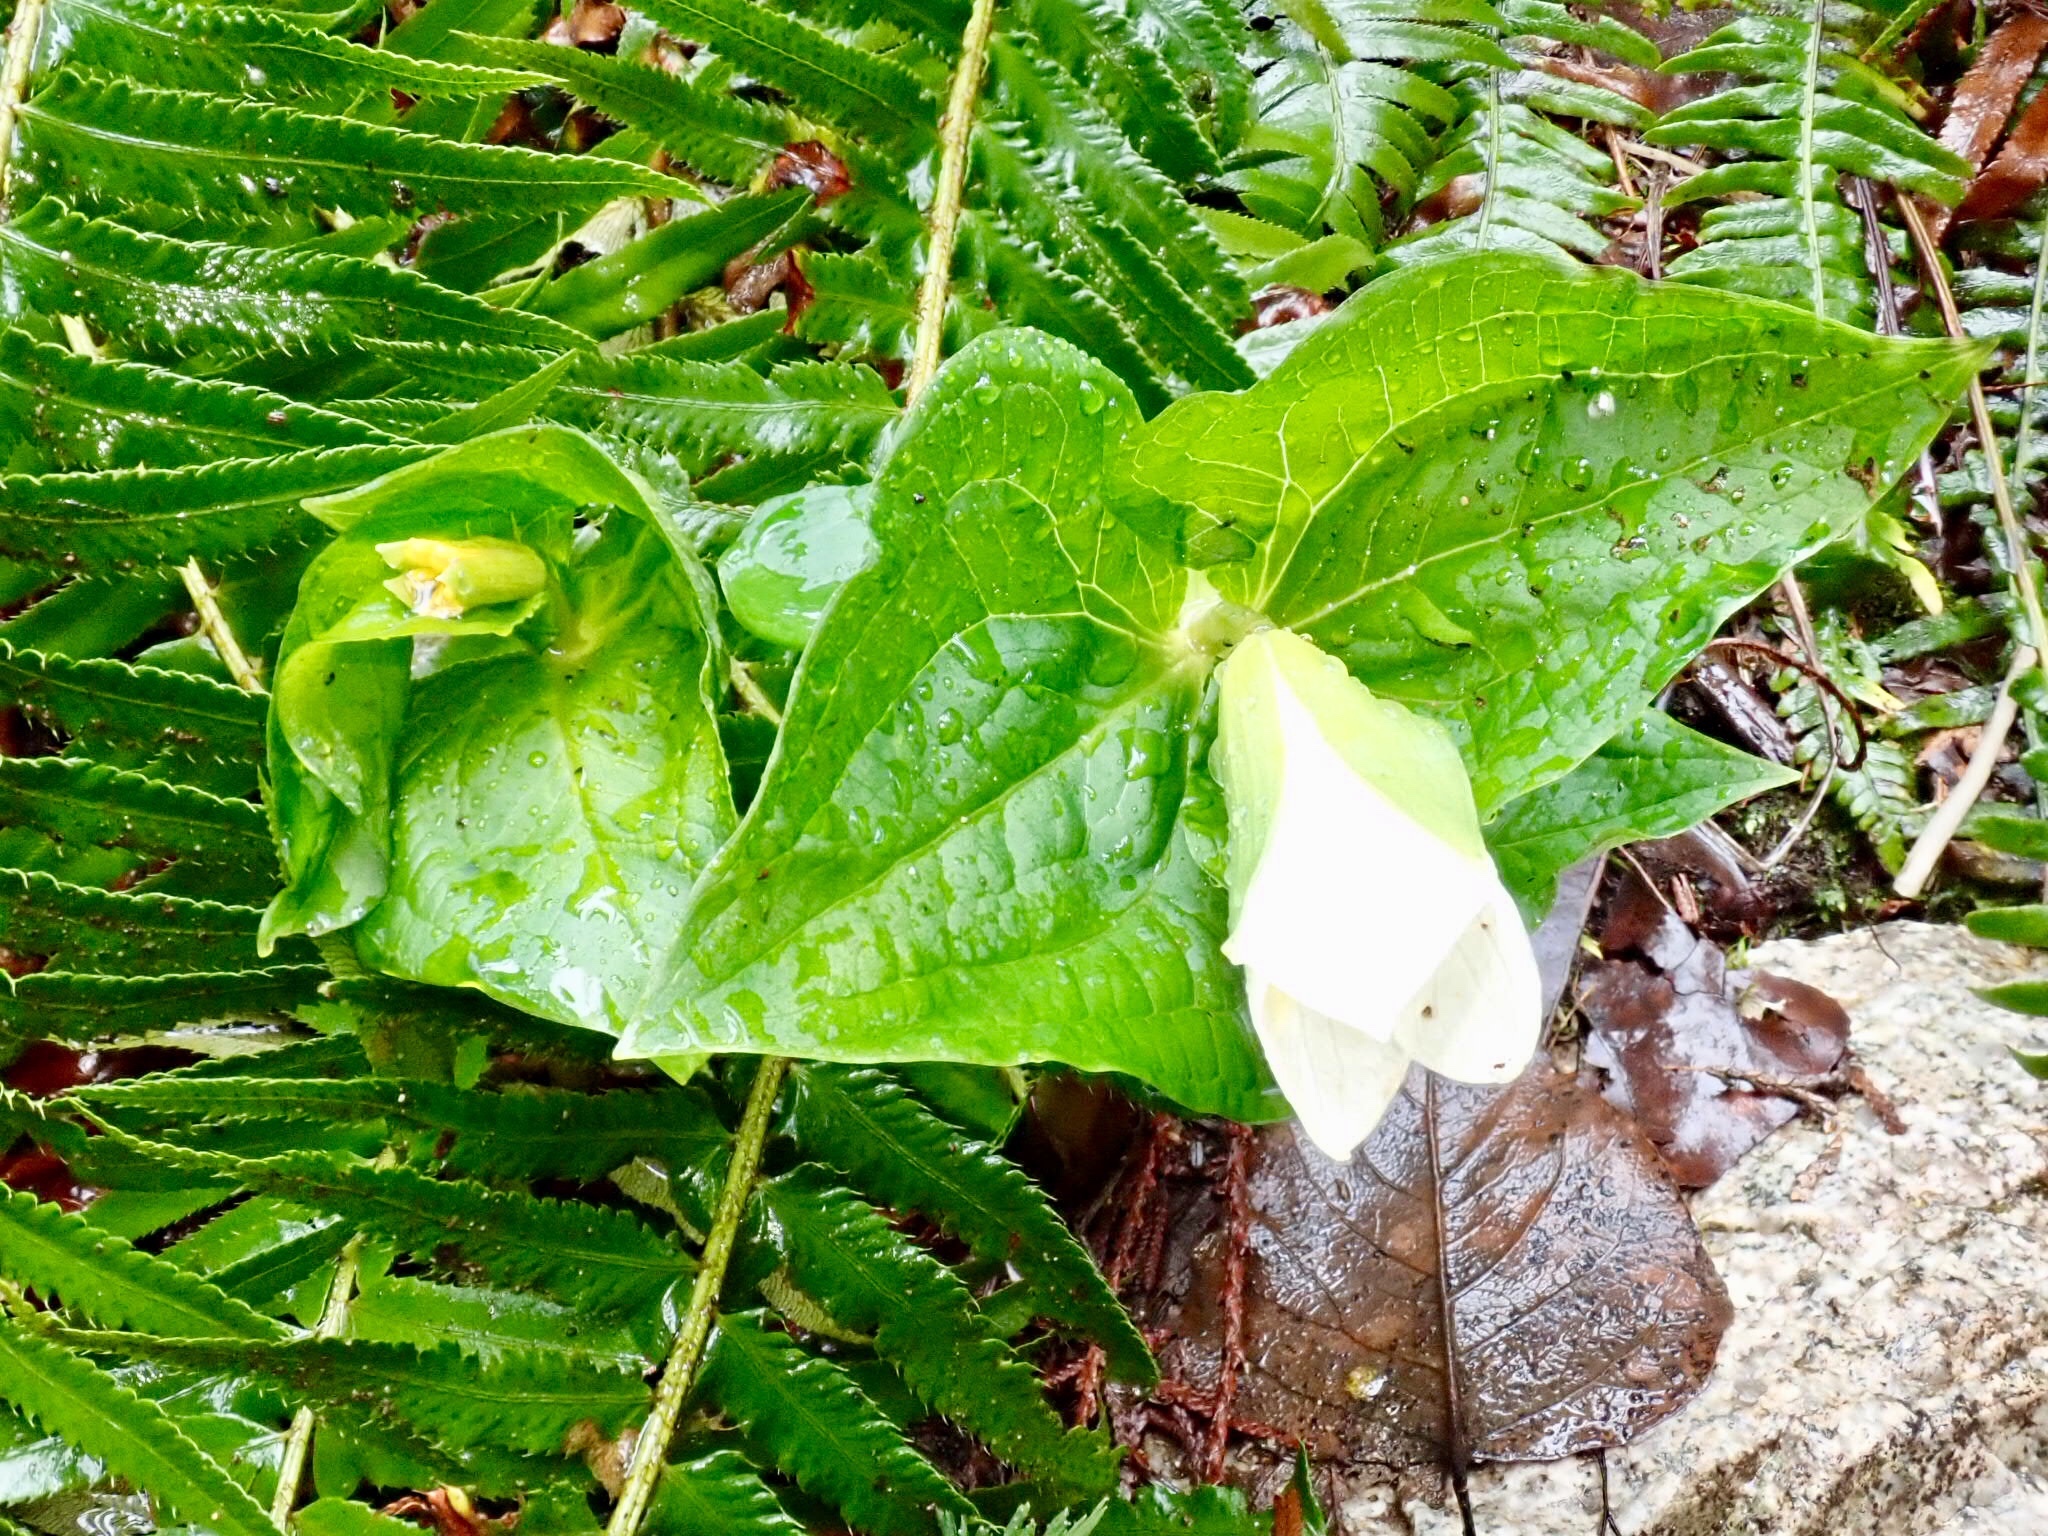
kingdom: Plantae
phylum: Tracheophyta
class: Liliopsida
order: Liliales
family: Melanthiaceae
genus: Trillium
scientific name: Trillium ovatum
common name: Pacific trillium
